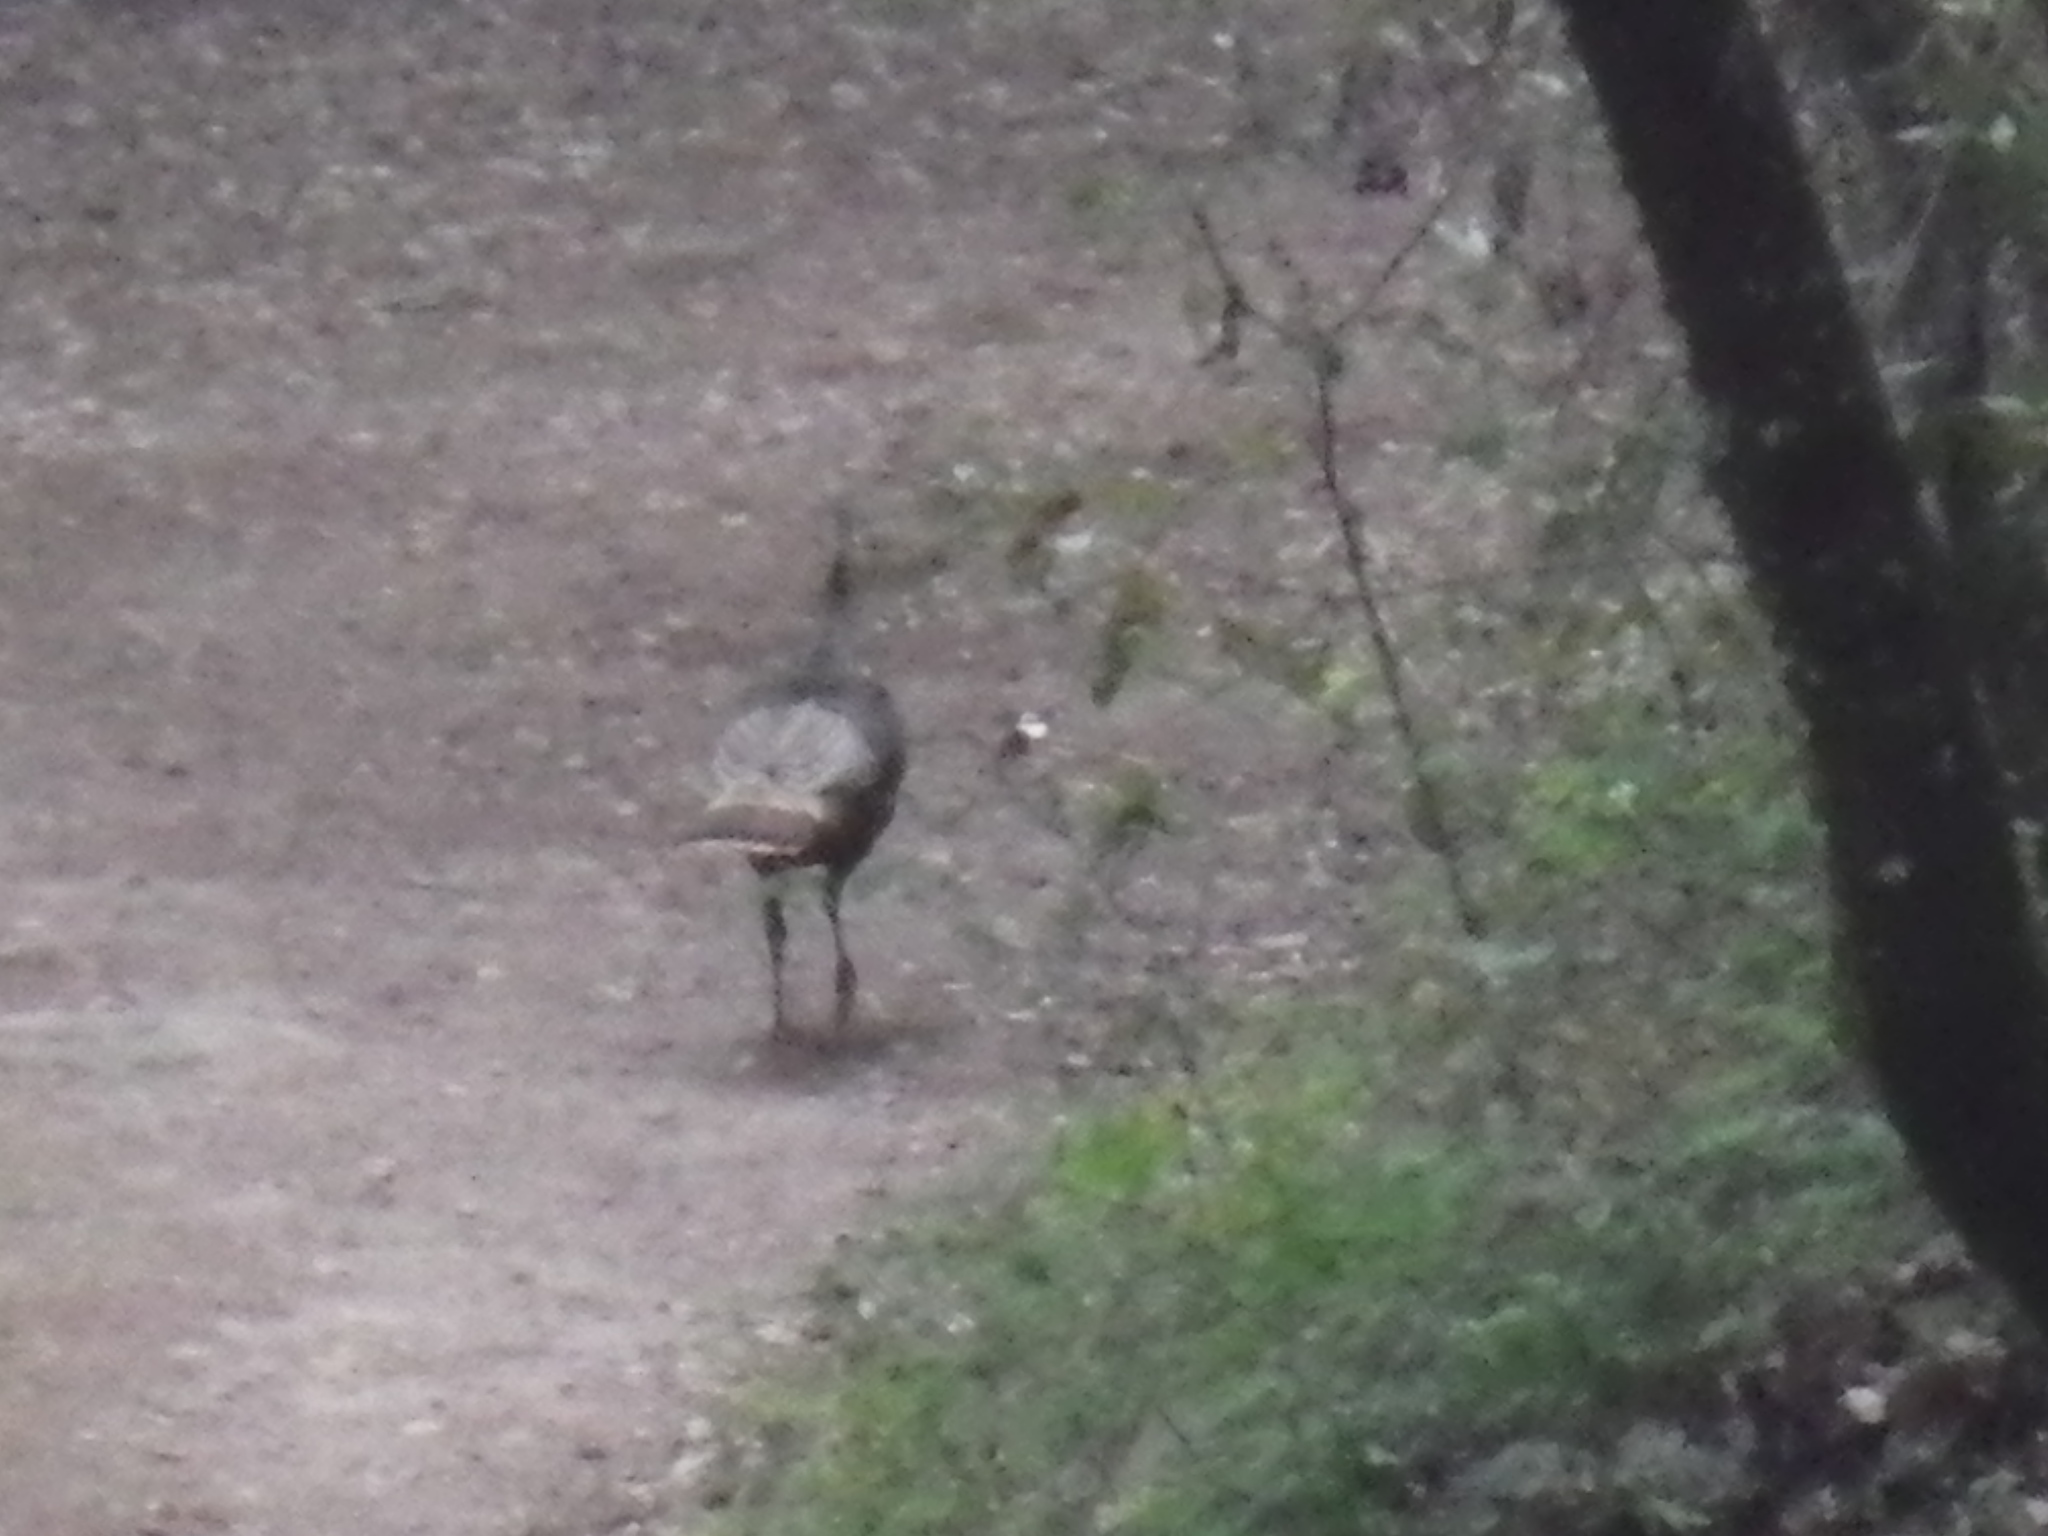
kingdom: Animalia
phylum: Chordata
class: Aves
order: Galliformes
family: Phasianidae
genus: Meleagris
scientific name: Meleagris gallopavo
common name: Wild turkey
